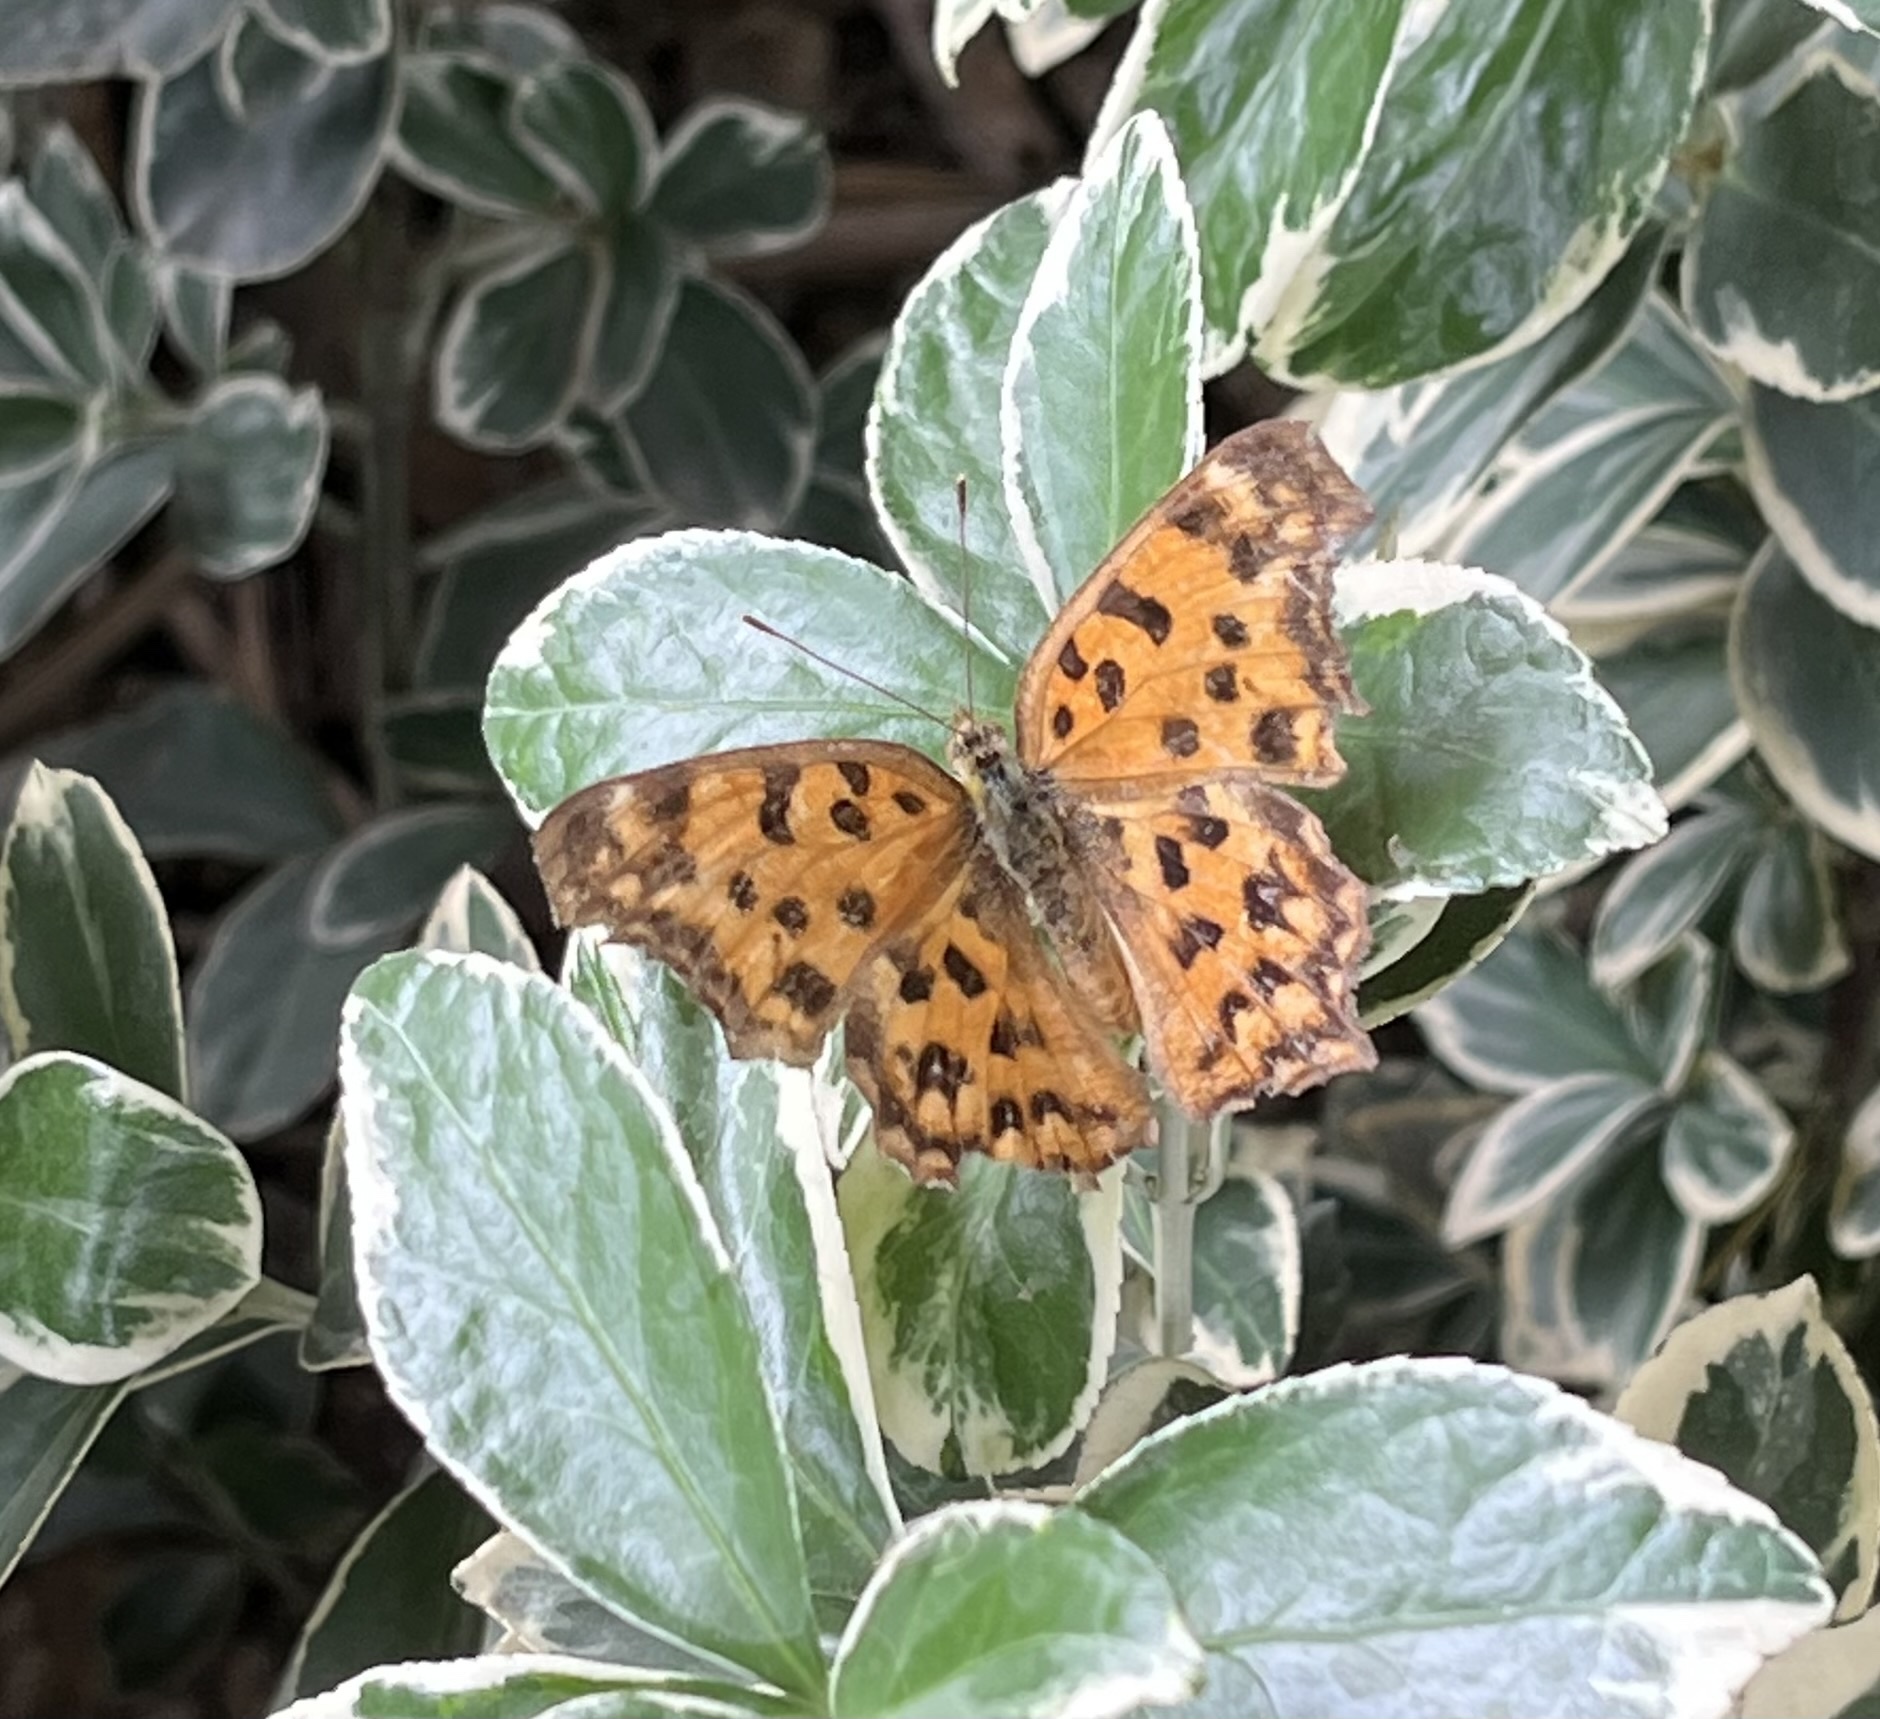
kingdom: Animalia
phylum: Arthropoda
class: Insecta
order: Lepidoptera
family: Nymphalidae
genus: Polygonia
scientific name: Polygonia c-aureum
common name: Asian comma
